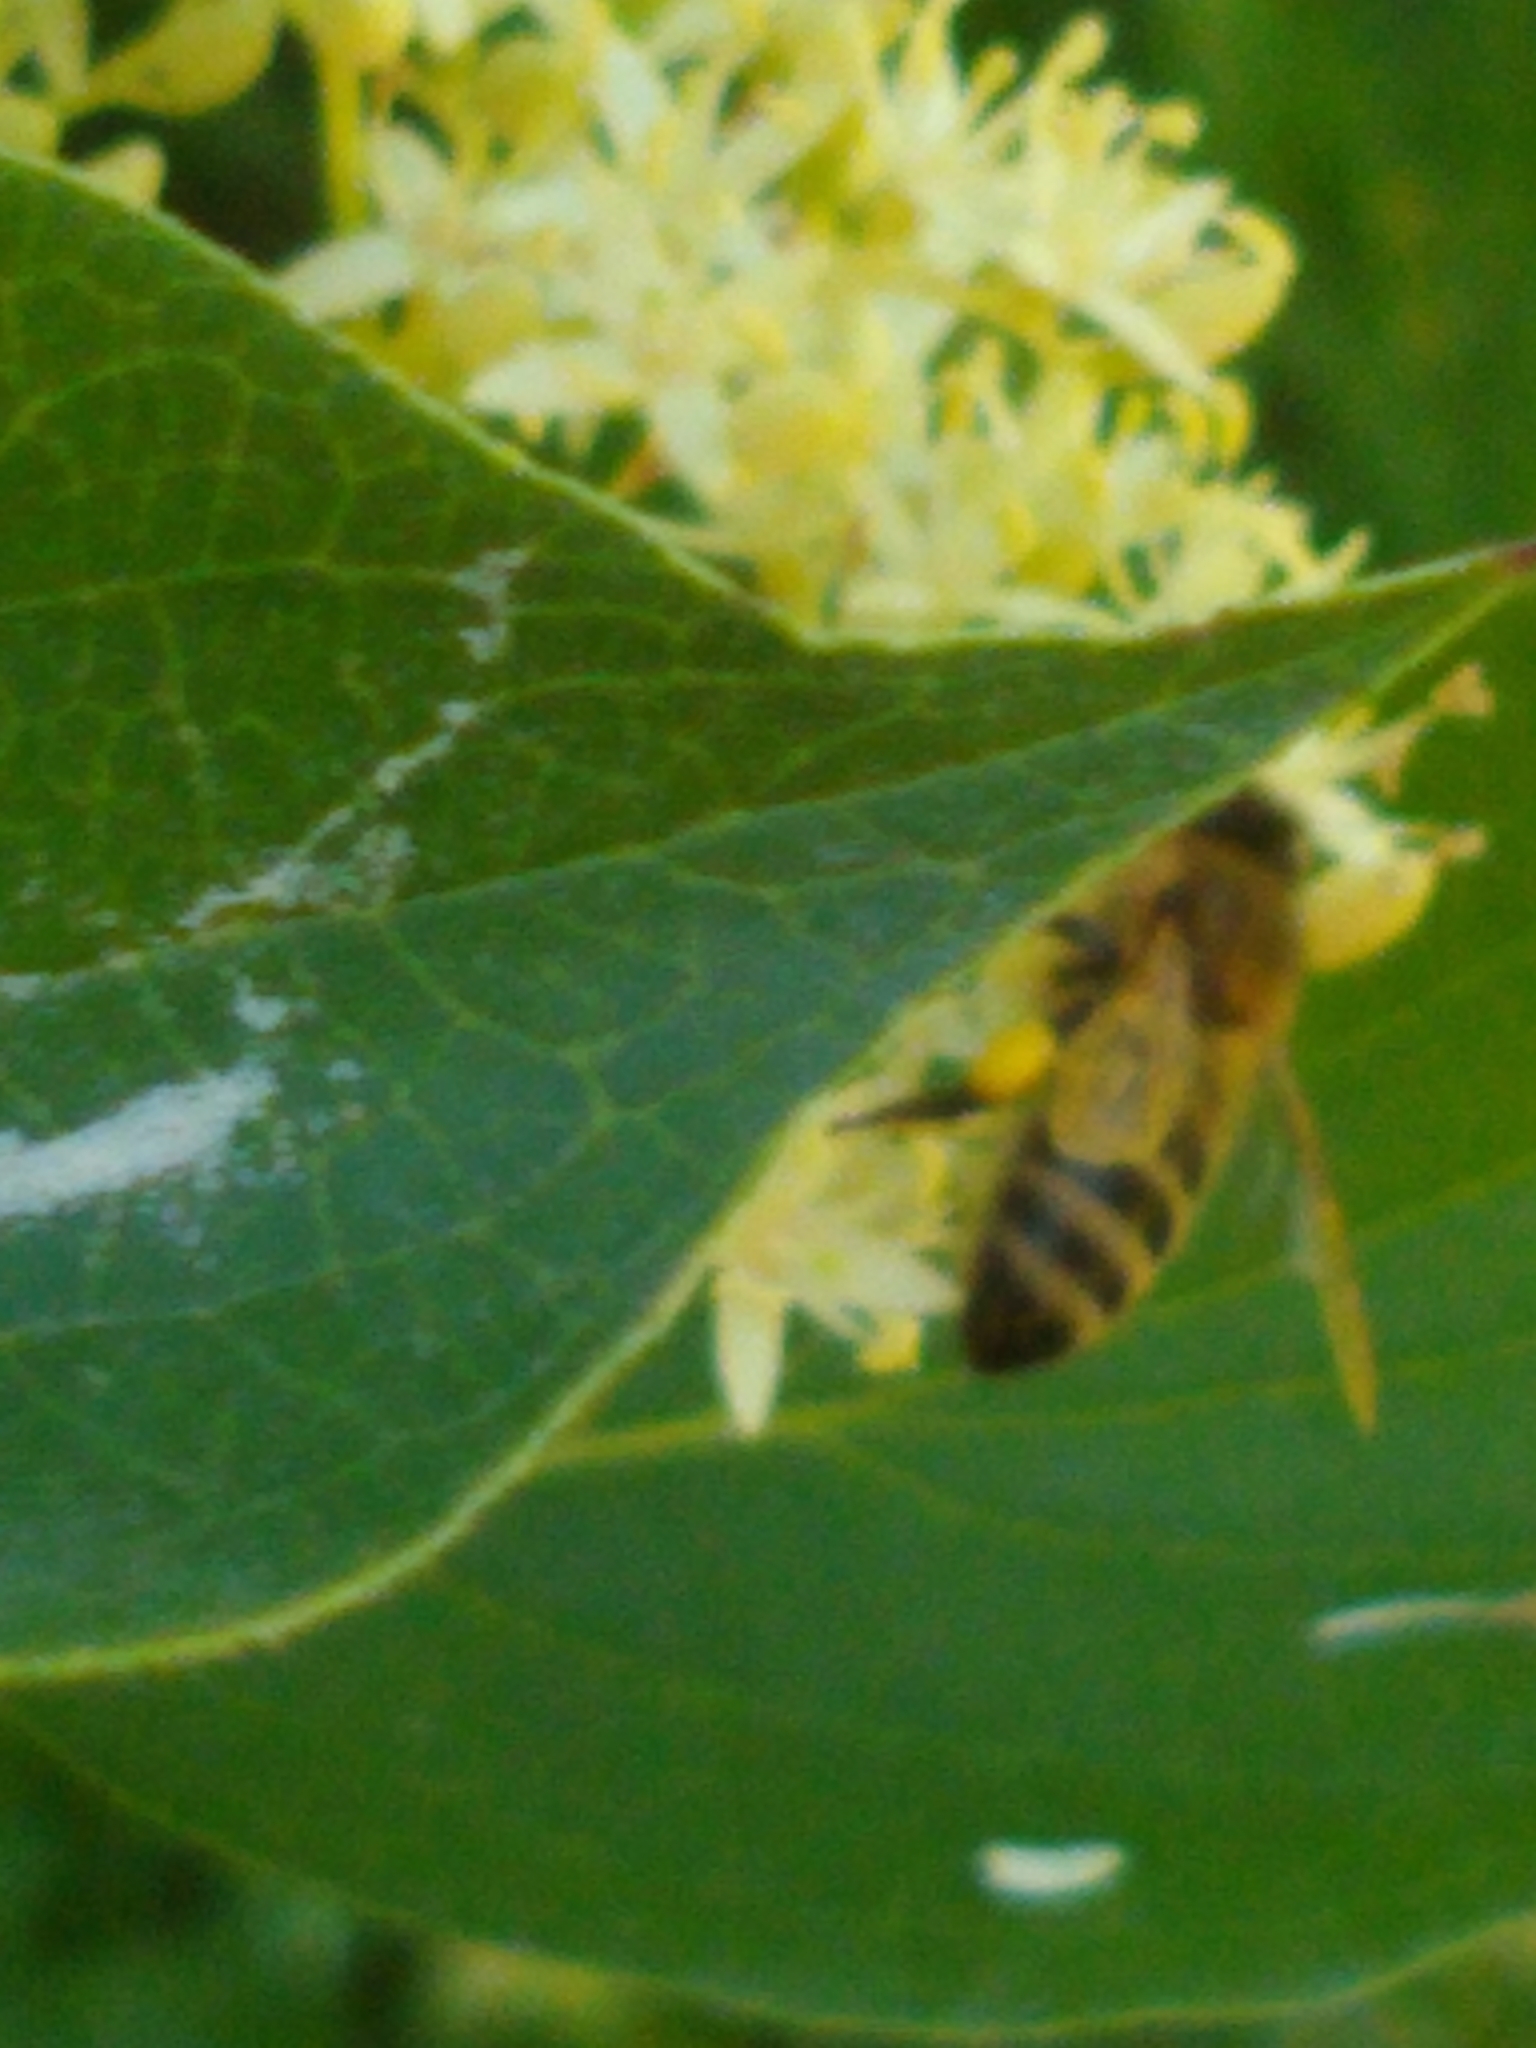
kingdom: Animalia
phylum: Arthropoda
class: Insecta
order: Hymenoptera
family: Apidae
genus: Apis
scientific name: Apis mellifera
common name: Honey bee
